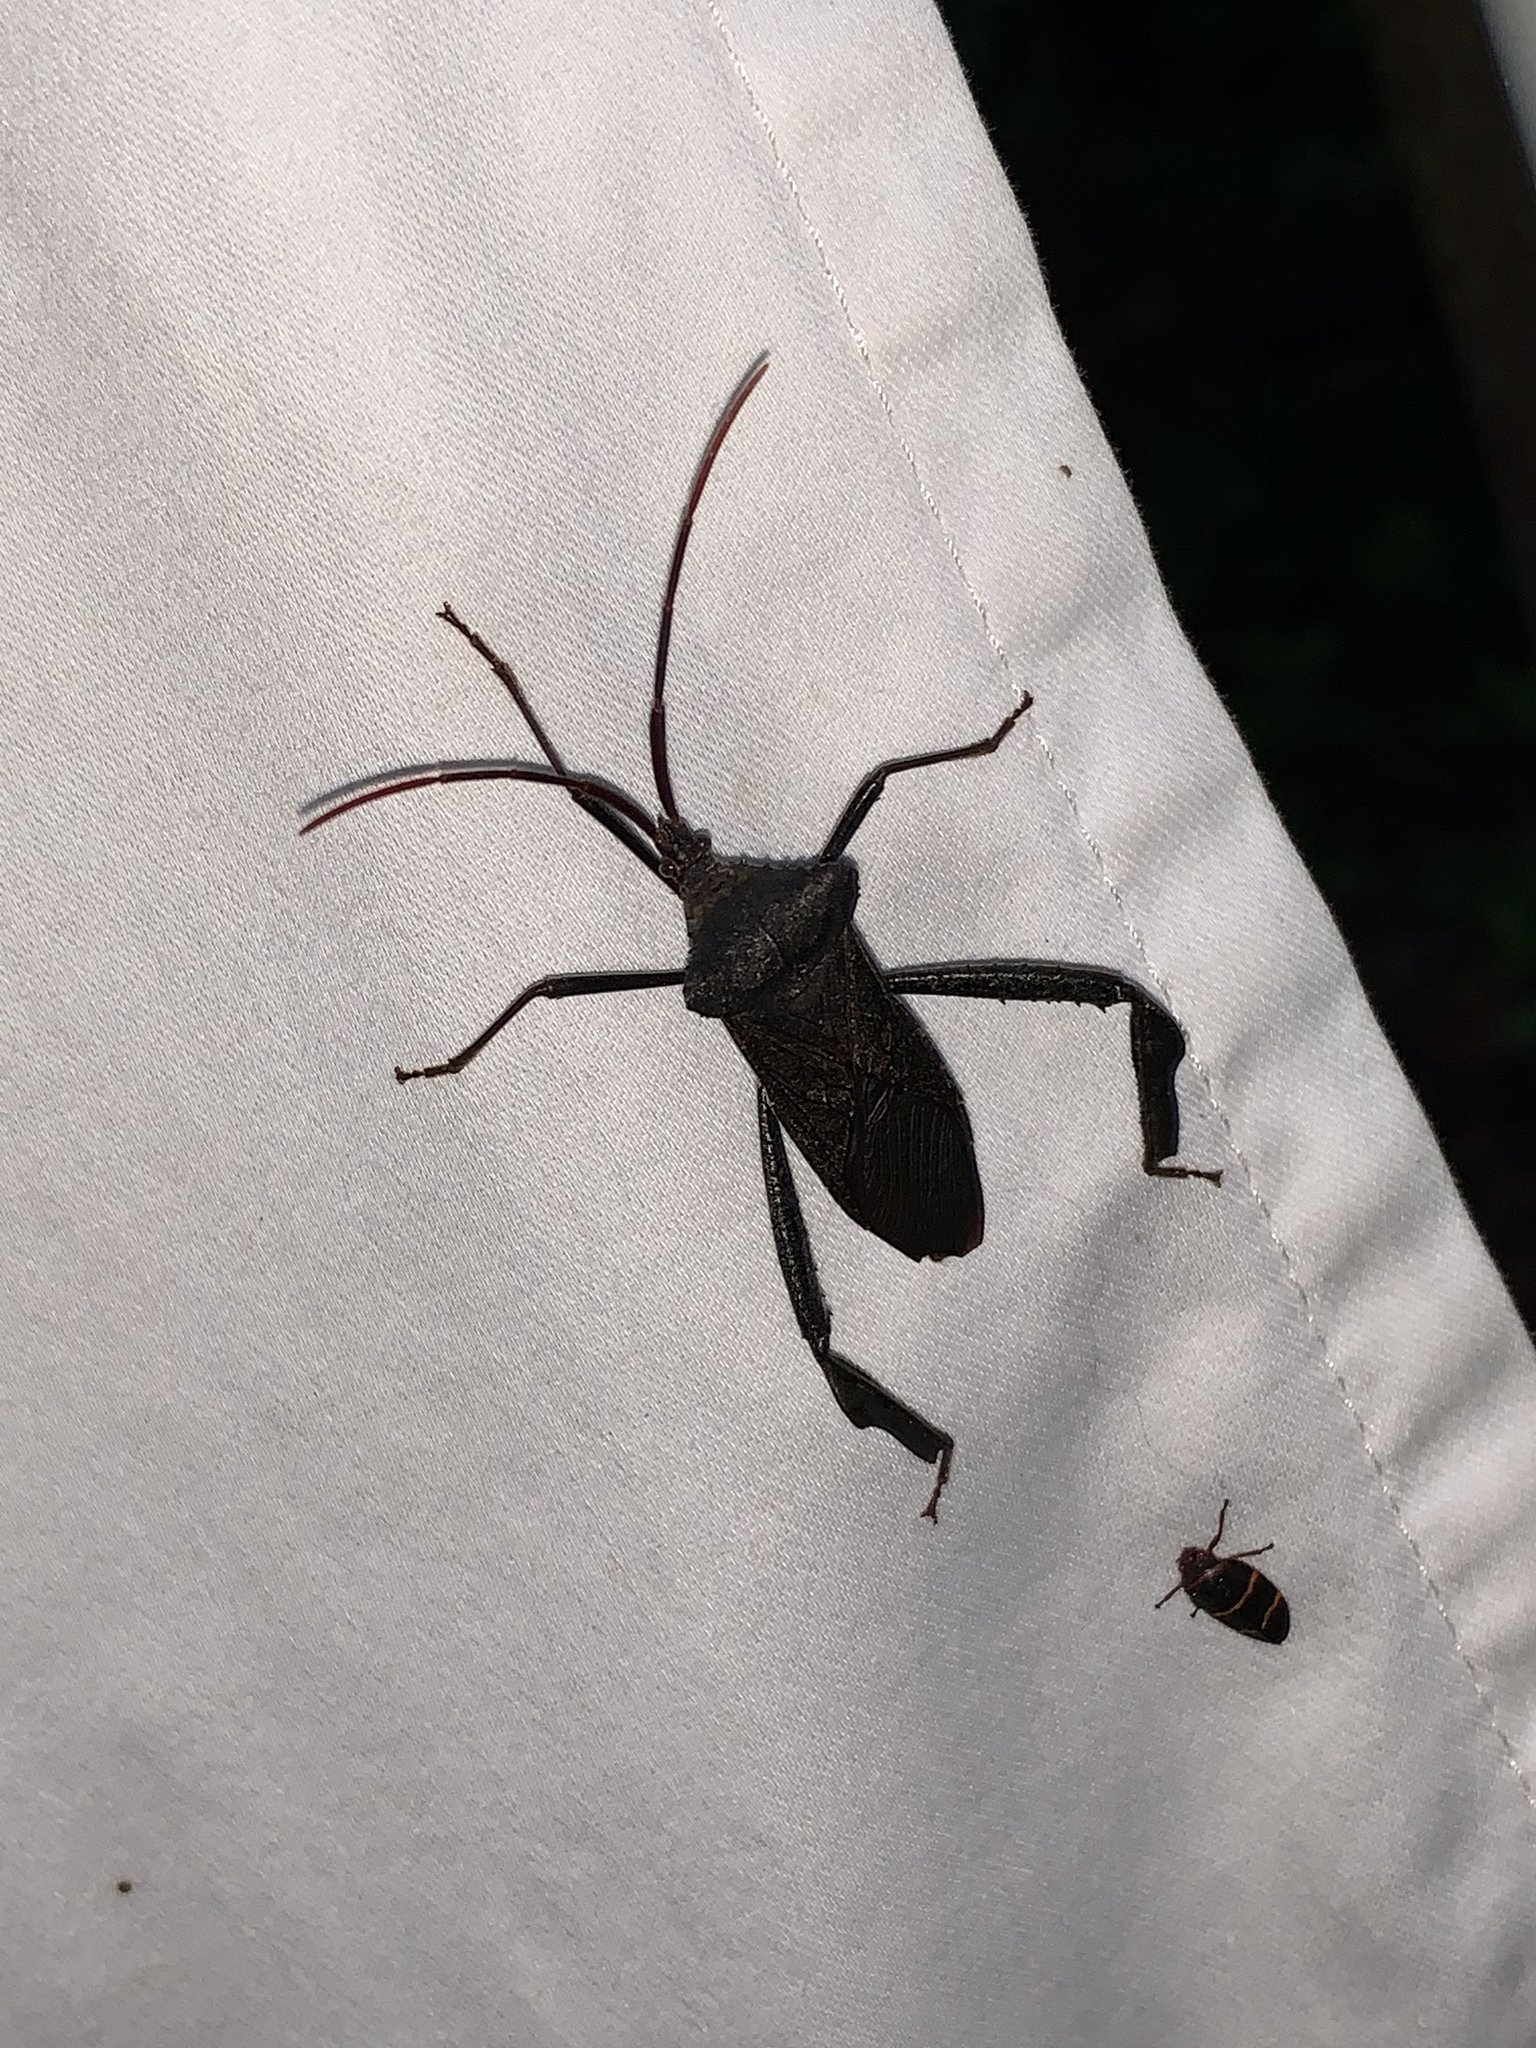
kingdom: Animalia
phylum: Arthropoda
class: Insecta
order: Hemiptera
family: Coreidae
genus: Acanthocephala
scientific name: Acanthocephala declivis
